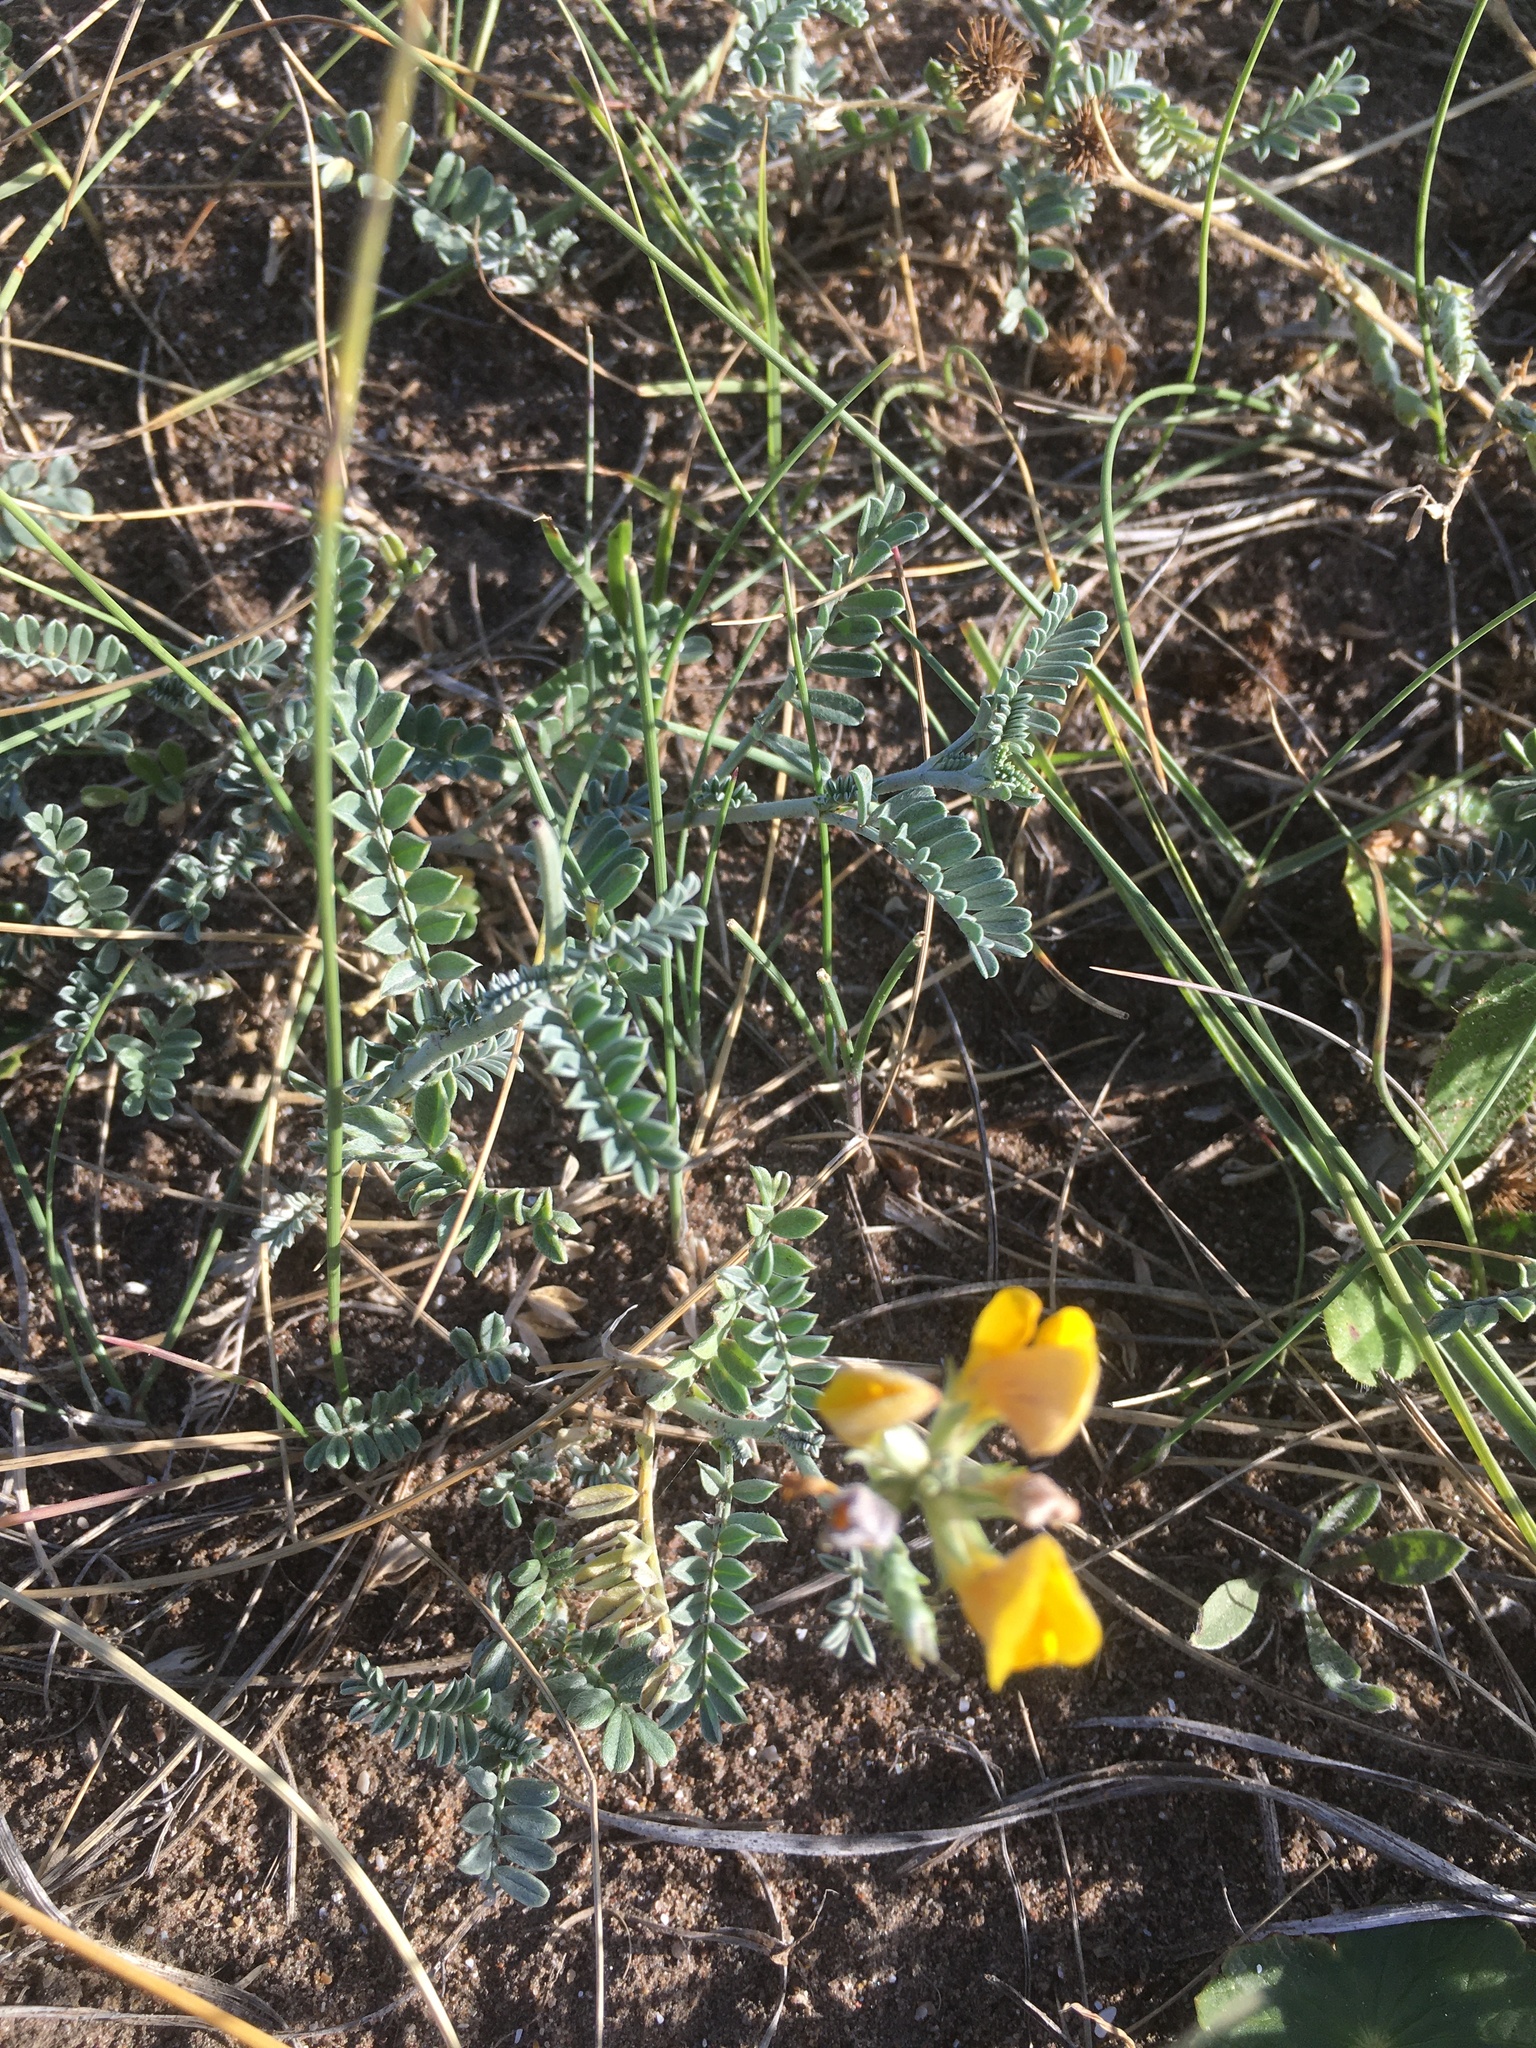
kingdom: Plantae
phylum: Tracheophyta
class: Magnoliopsida
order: Fabales
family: Fabaceae
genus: Adesmia
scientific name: Adesmia incana
